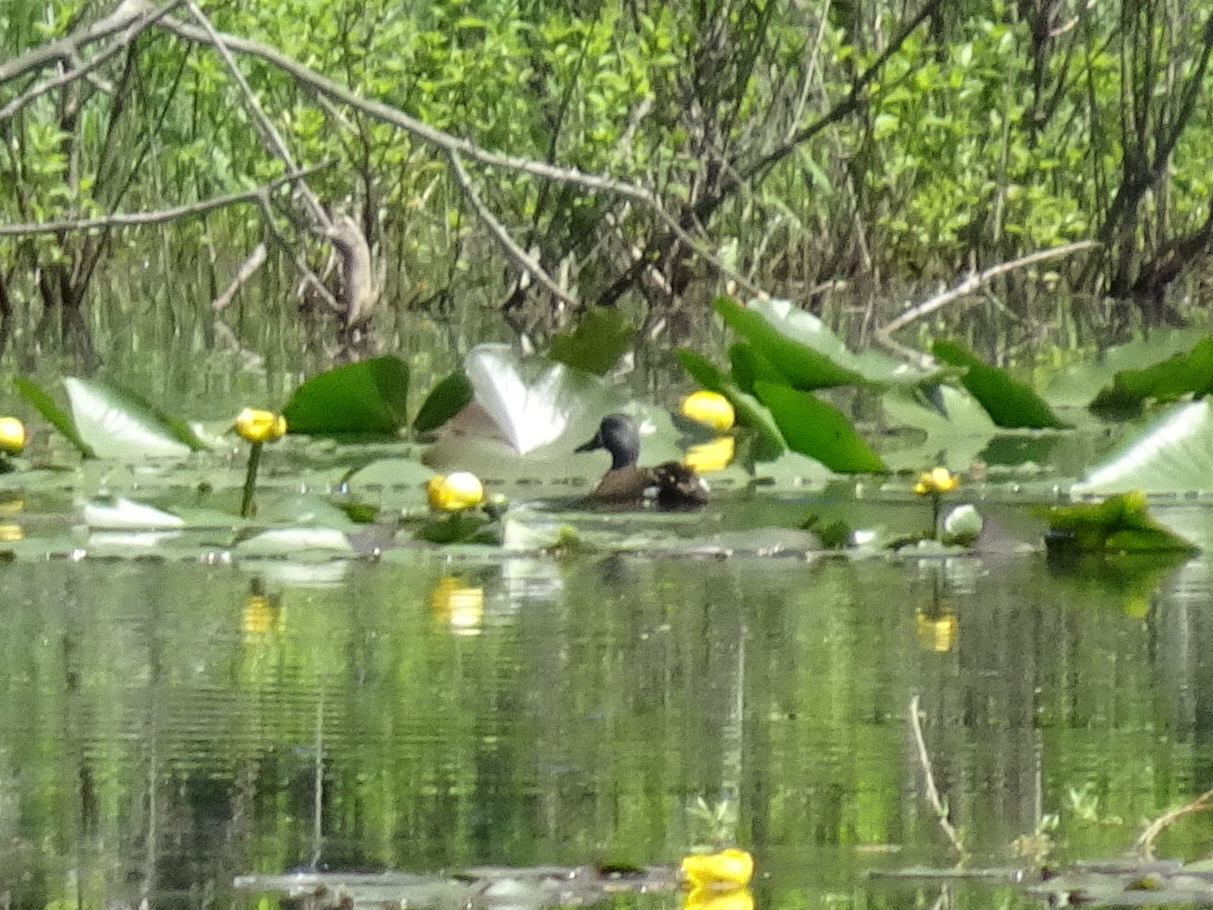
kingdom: Animalia
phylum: Chordata
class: Aves
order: Anseriformes
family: Anatidae
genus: Spatula
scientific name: Spatula discors
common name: Blue-winged teal
